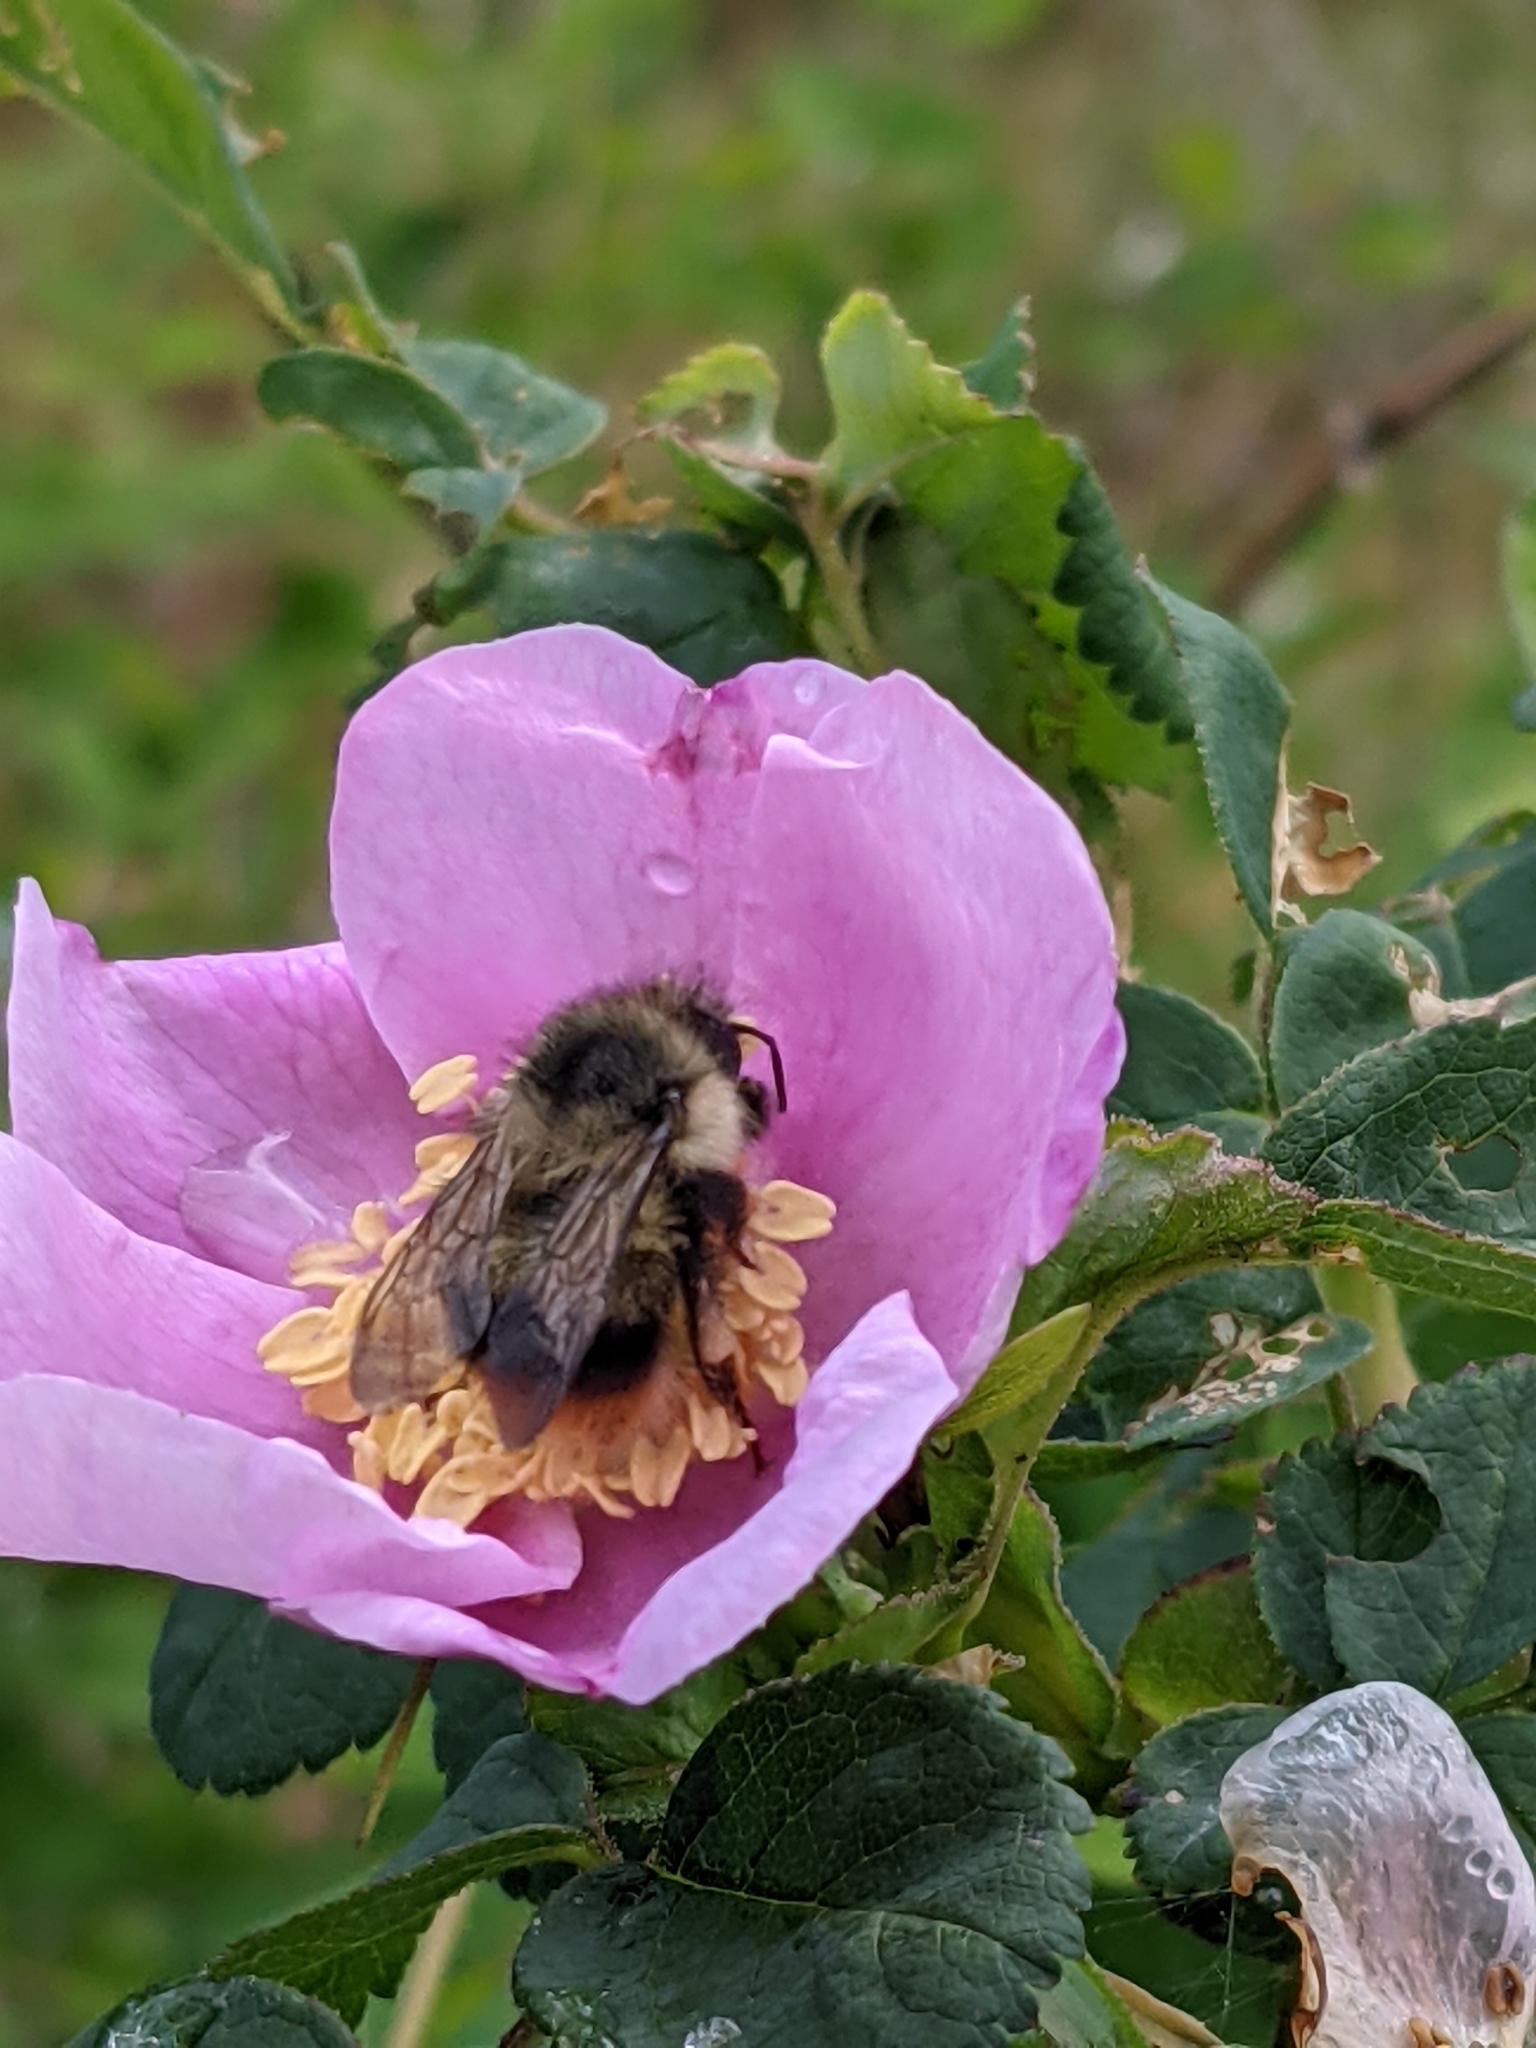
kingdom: Animalia
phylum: Arthropoda
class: Insecta
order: Hymenoptera
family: Apidae
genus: Bombus
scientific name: Bombus mixtus
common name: Fuzzy-horned bumble bee
